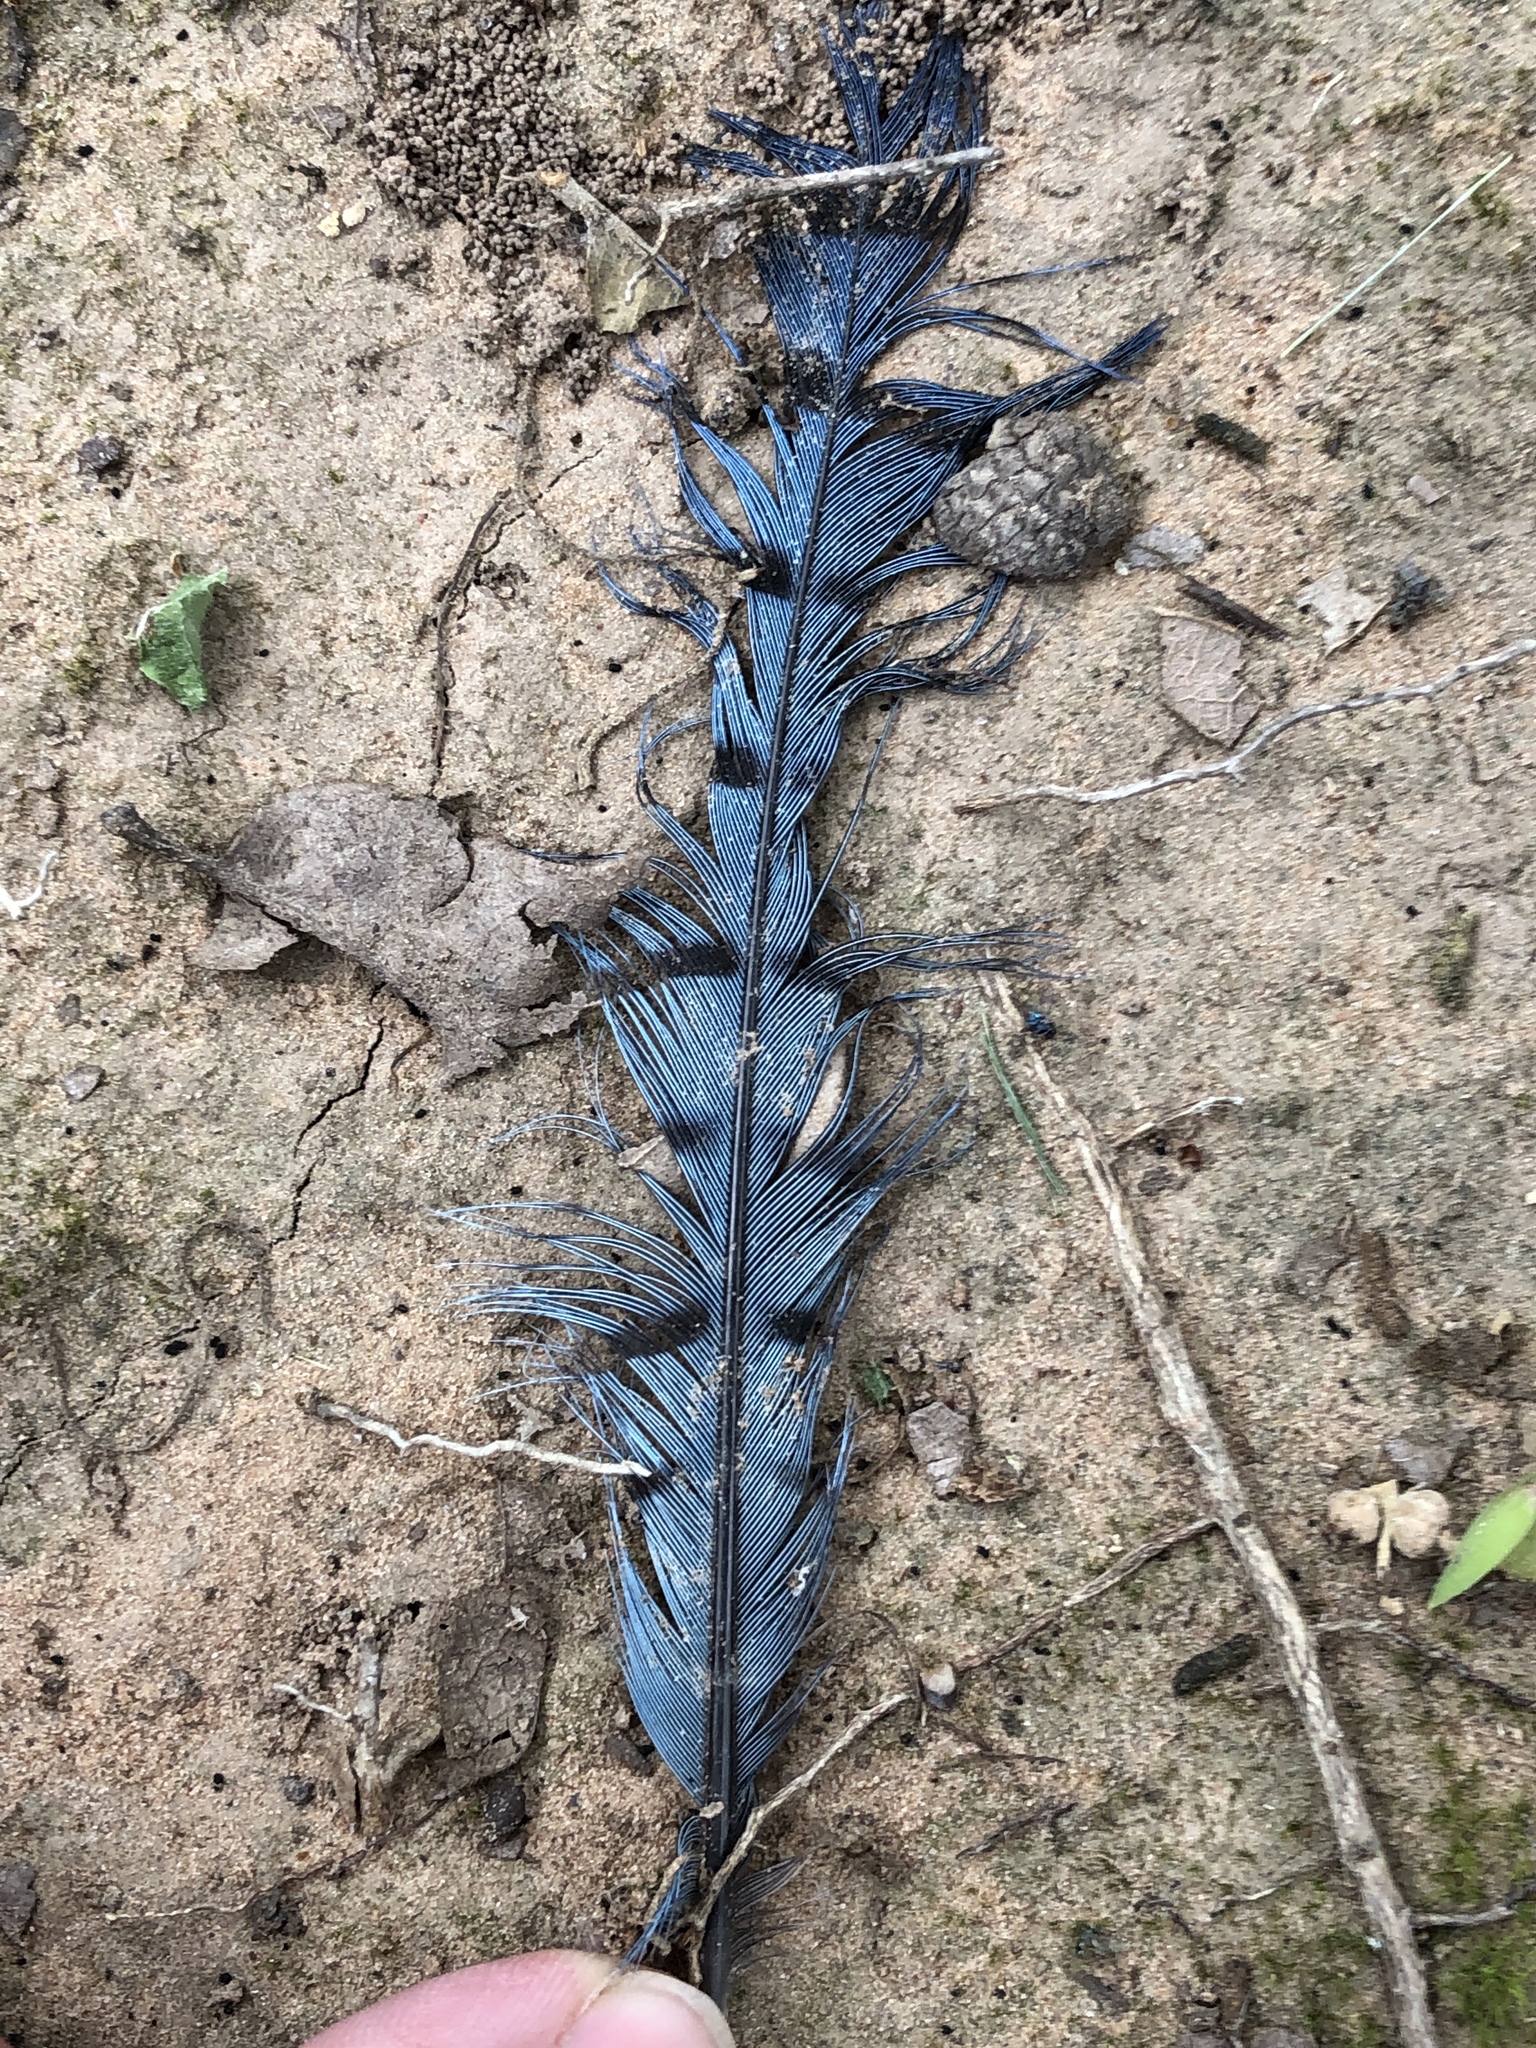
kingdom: Animalia
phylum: Chordata
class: Aves
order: Passeriformes
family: Corvidae
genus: Cyanocitta
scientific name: Cyanocitta cristata
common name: Blue jay
